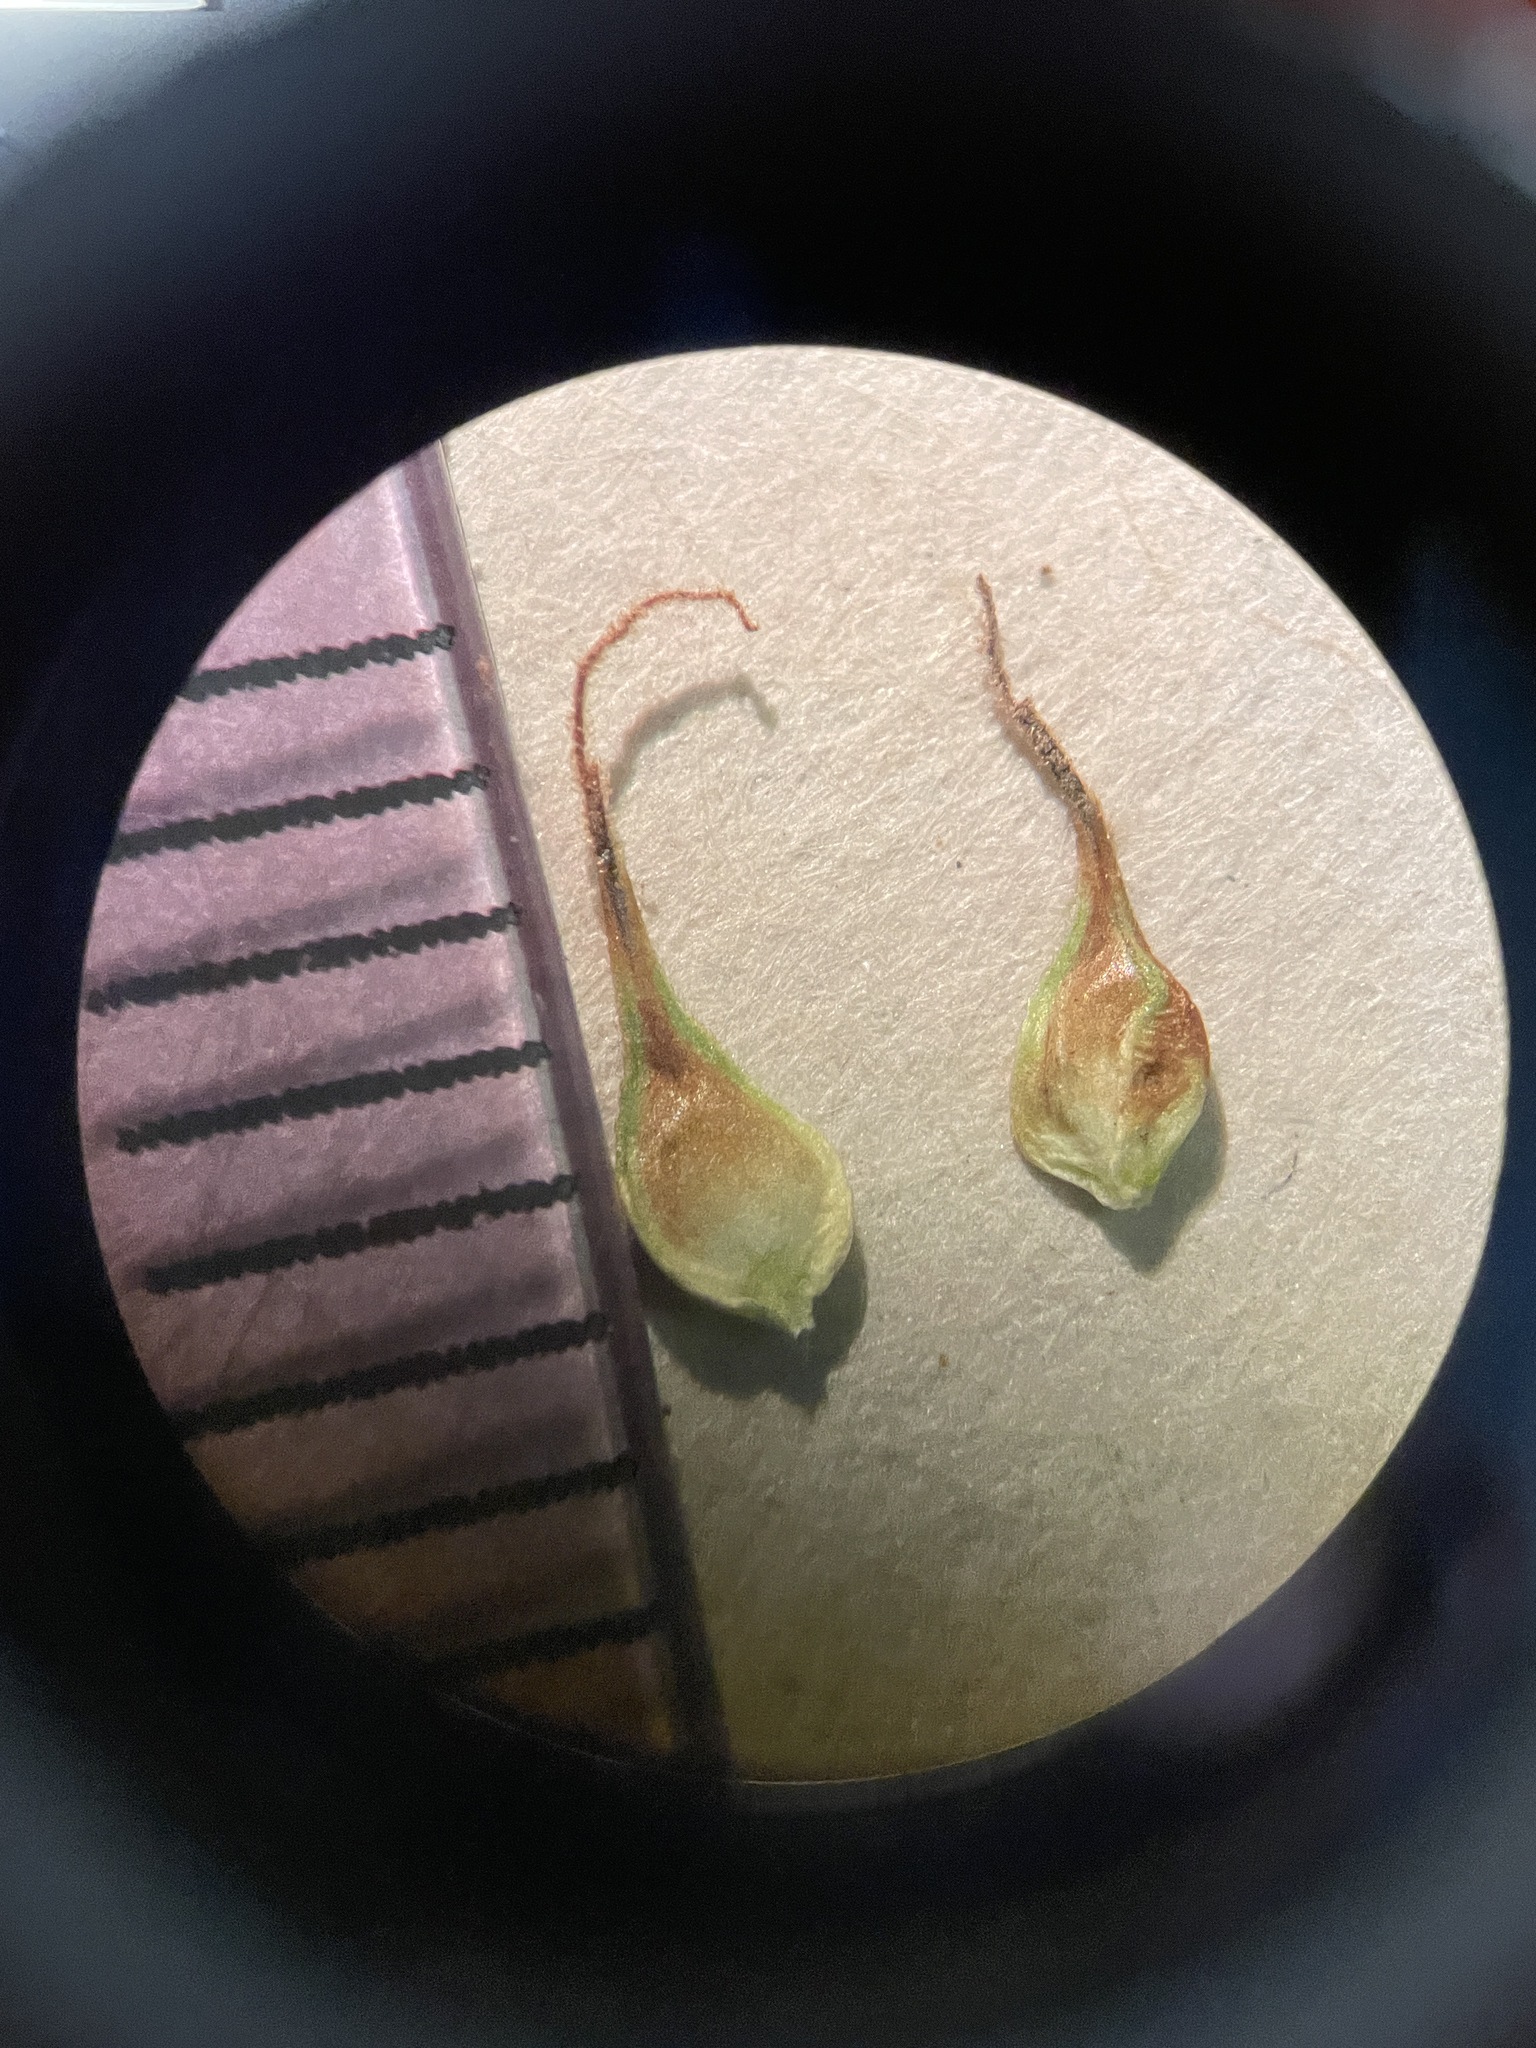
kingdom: Plantae
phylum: Tracheophyta
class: Liliopsida
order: Poales
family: Cyperaceae
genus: Carex
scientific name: Carex praegracilis
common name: Black creeper sedge
